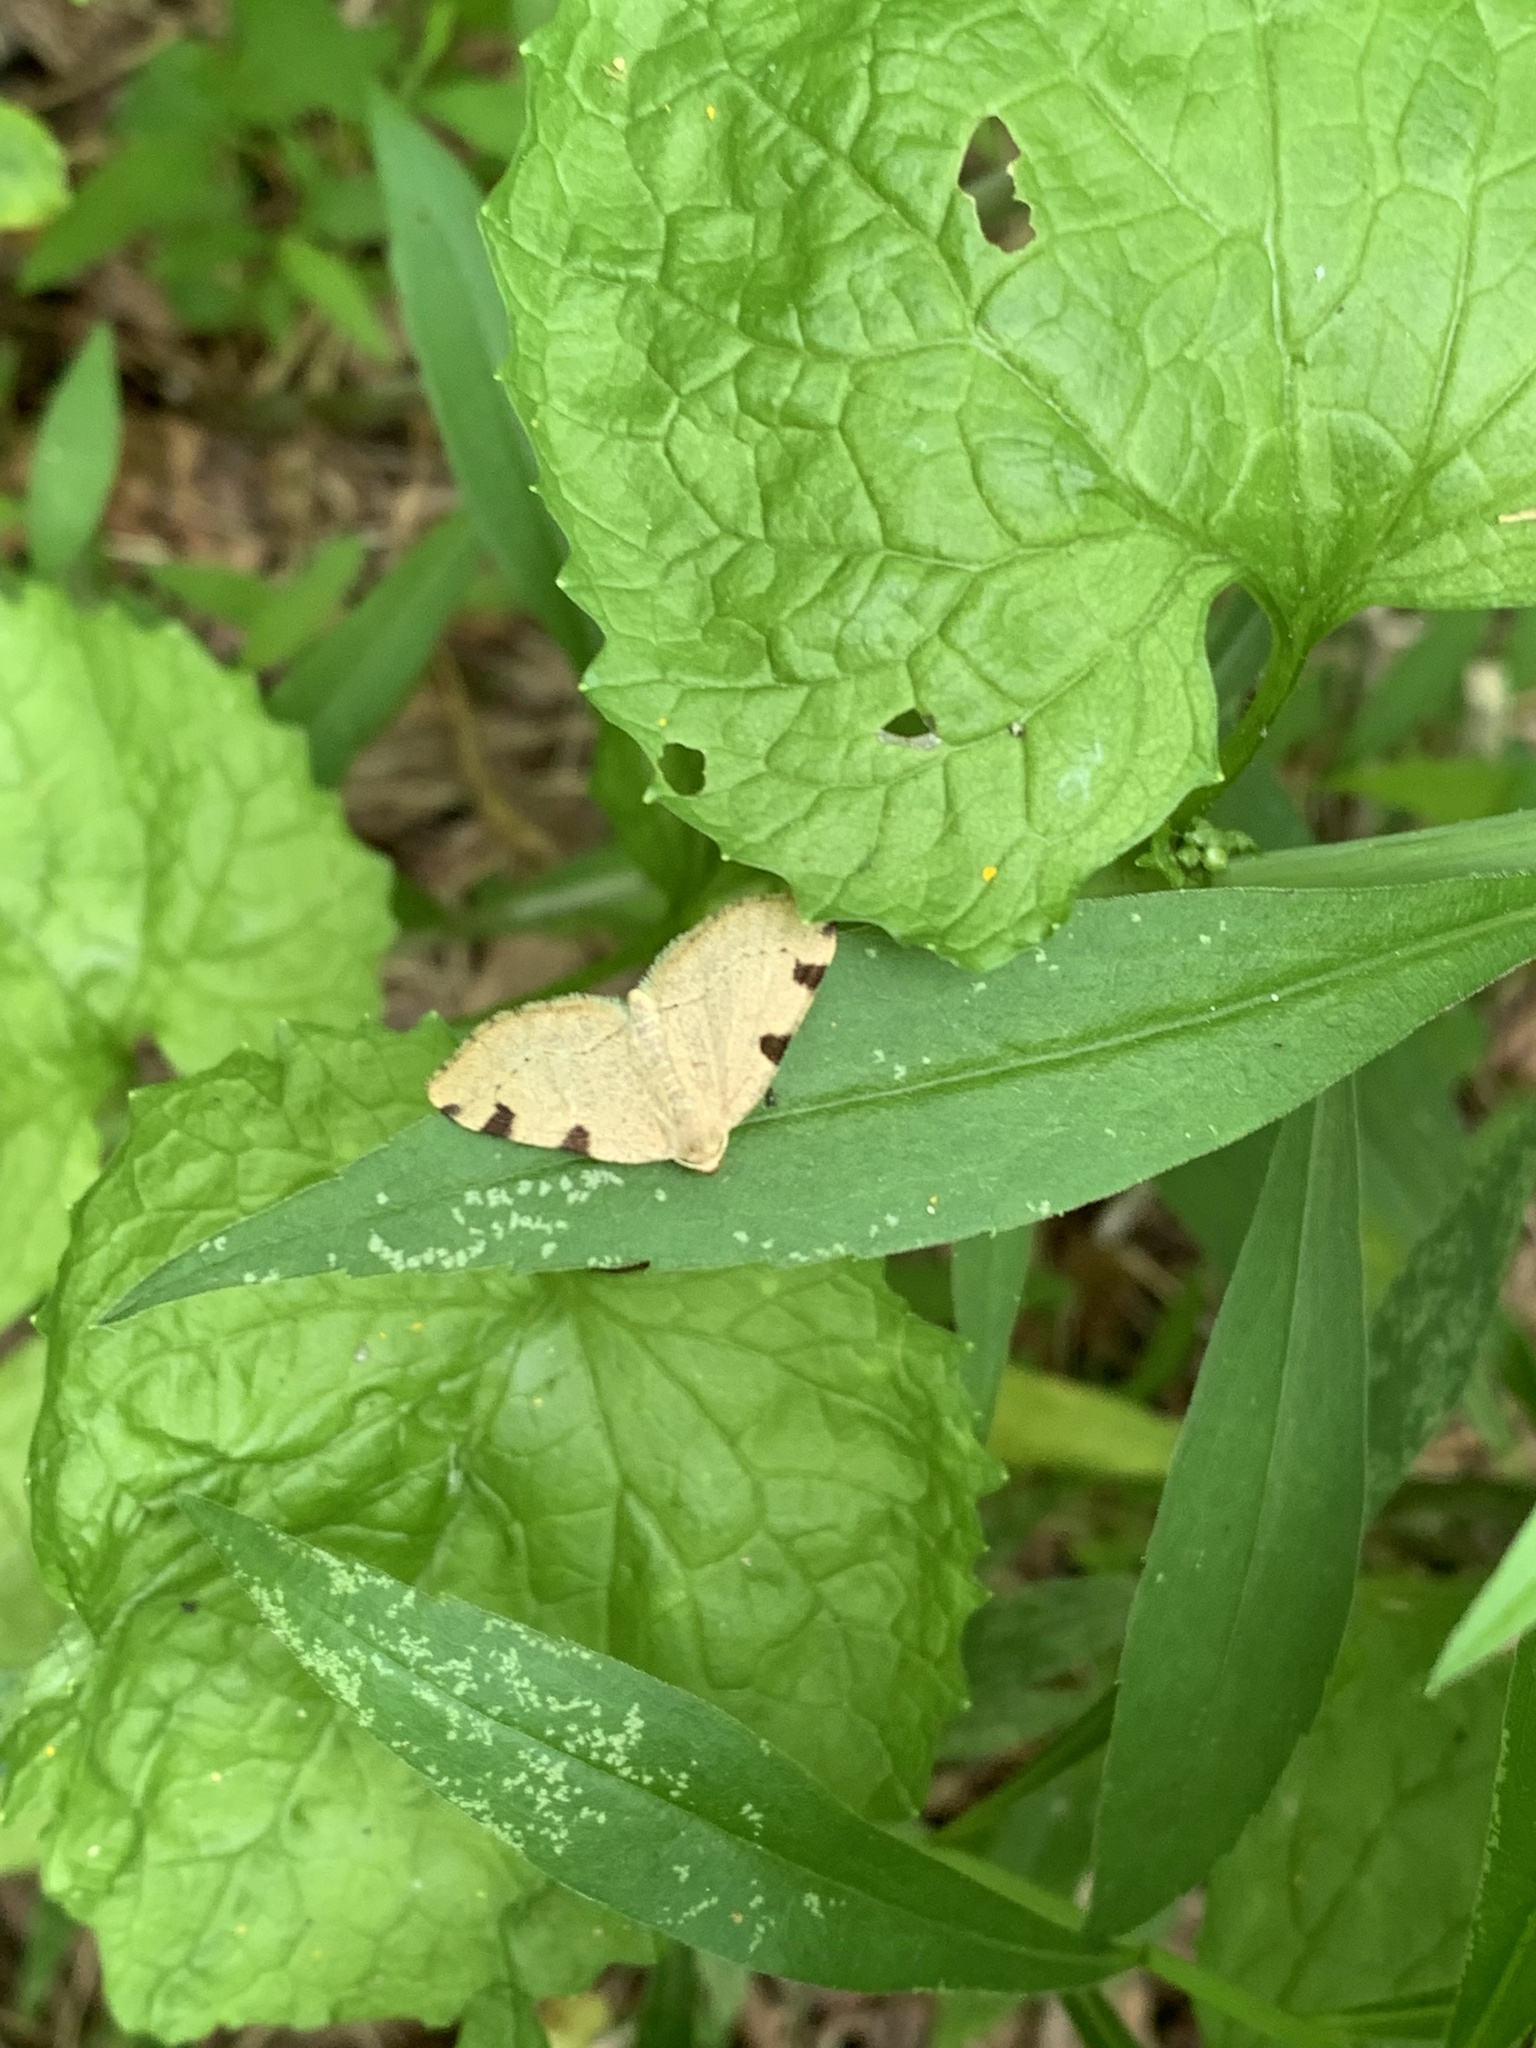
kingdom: Animalia
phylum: Arthropoda
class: Insecta
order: Lepidoptera
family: Geometridae
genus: Heterophleps
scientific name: Heterophleps triguttaria
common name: Three-spotted fillip
